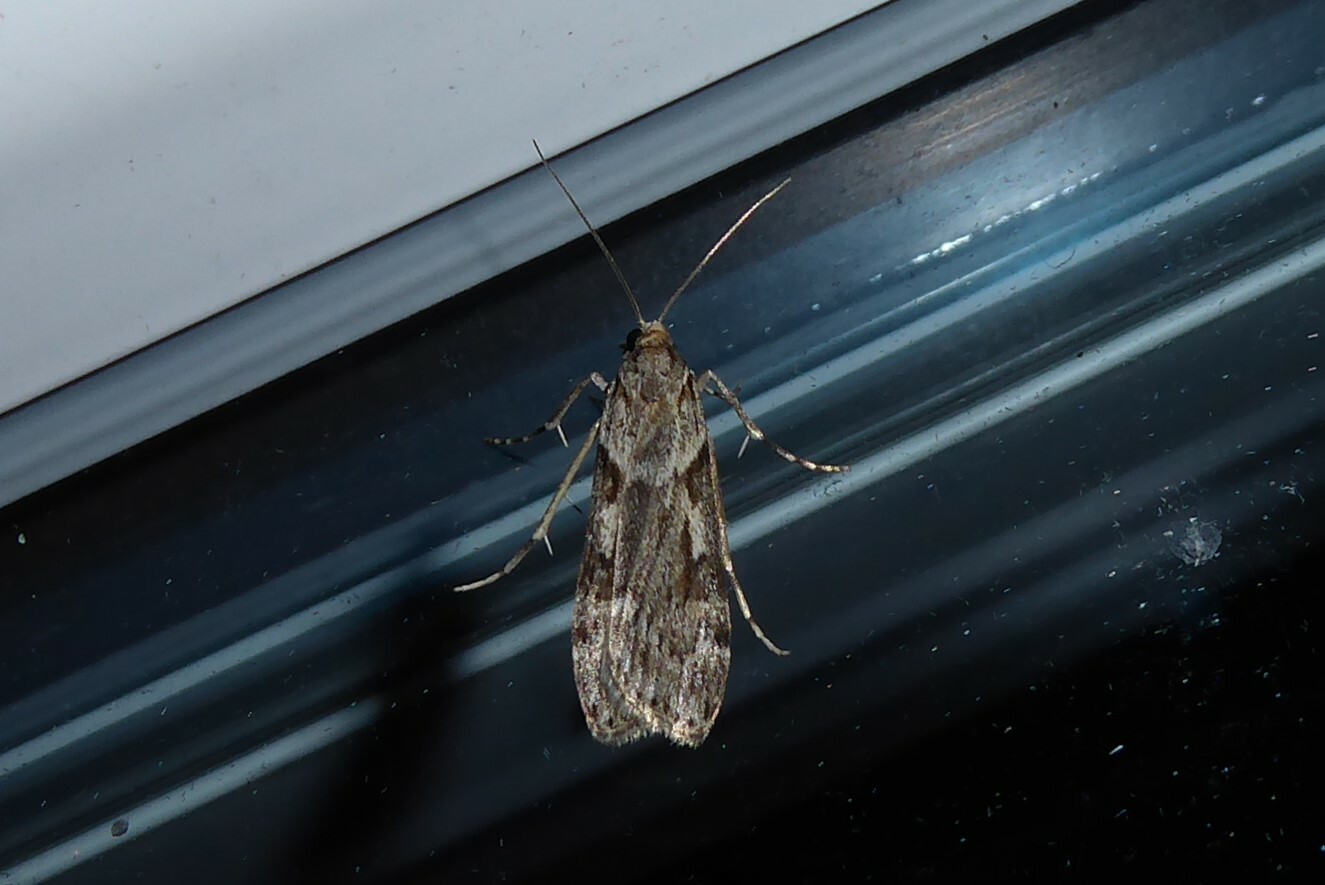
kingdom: Animalia
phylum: Arthropoda
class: Insecta
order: Lepidoptera
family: Crambidae
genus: Scoparia
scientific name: Scoparia halopis
